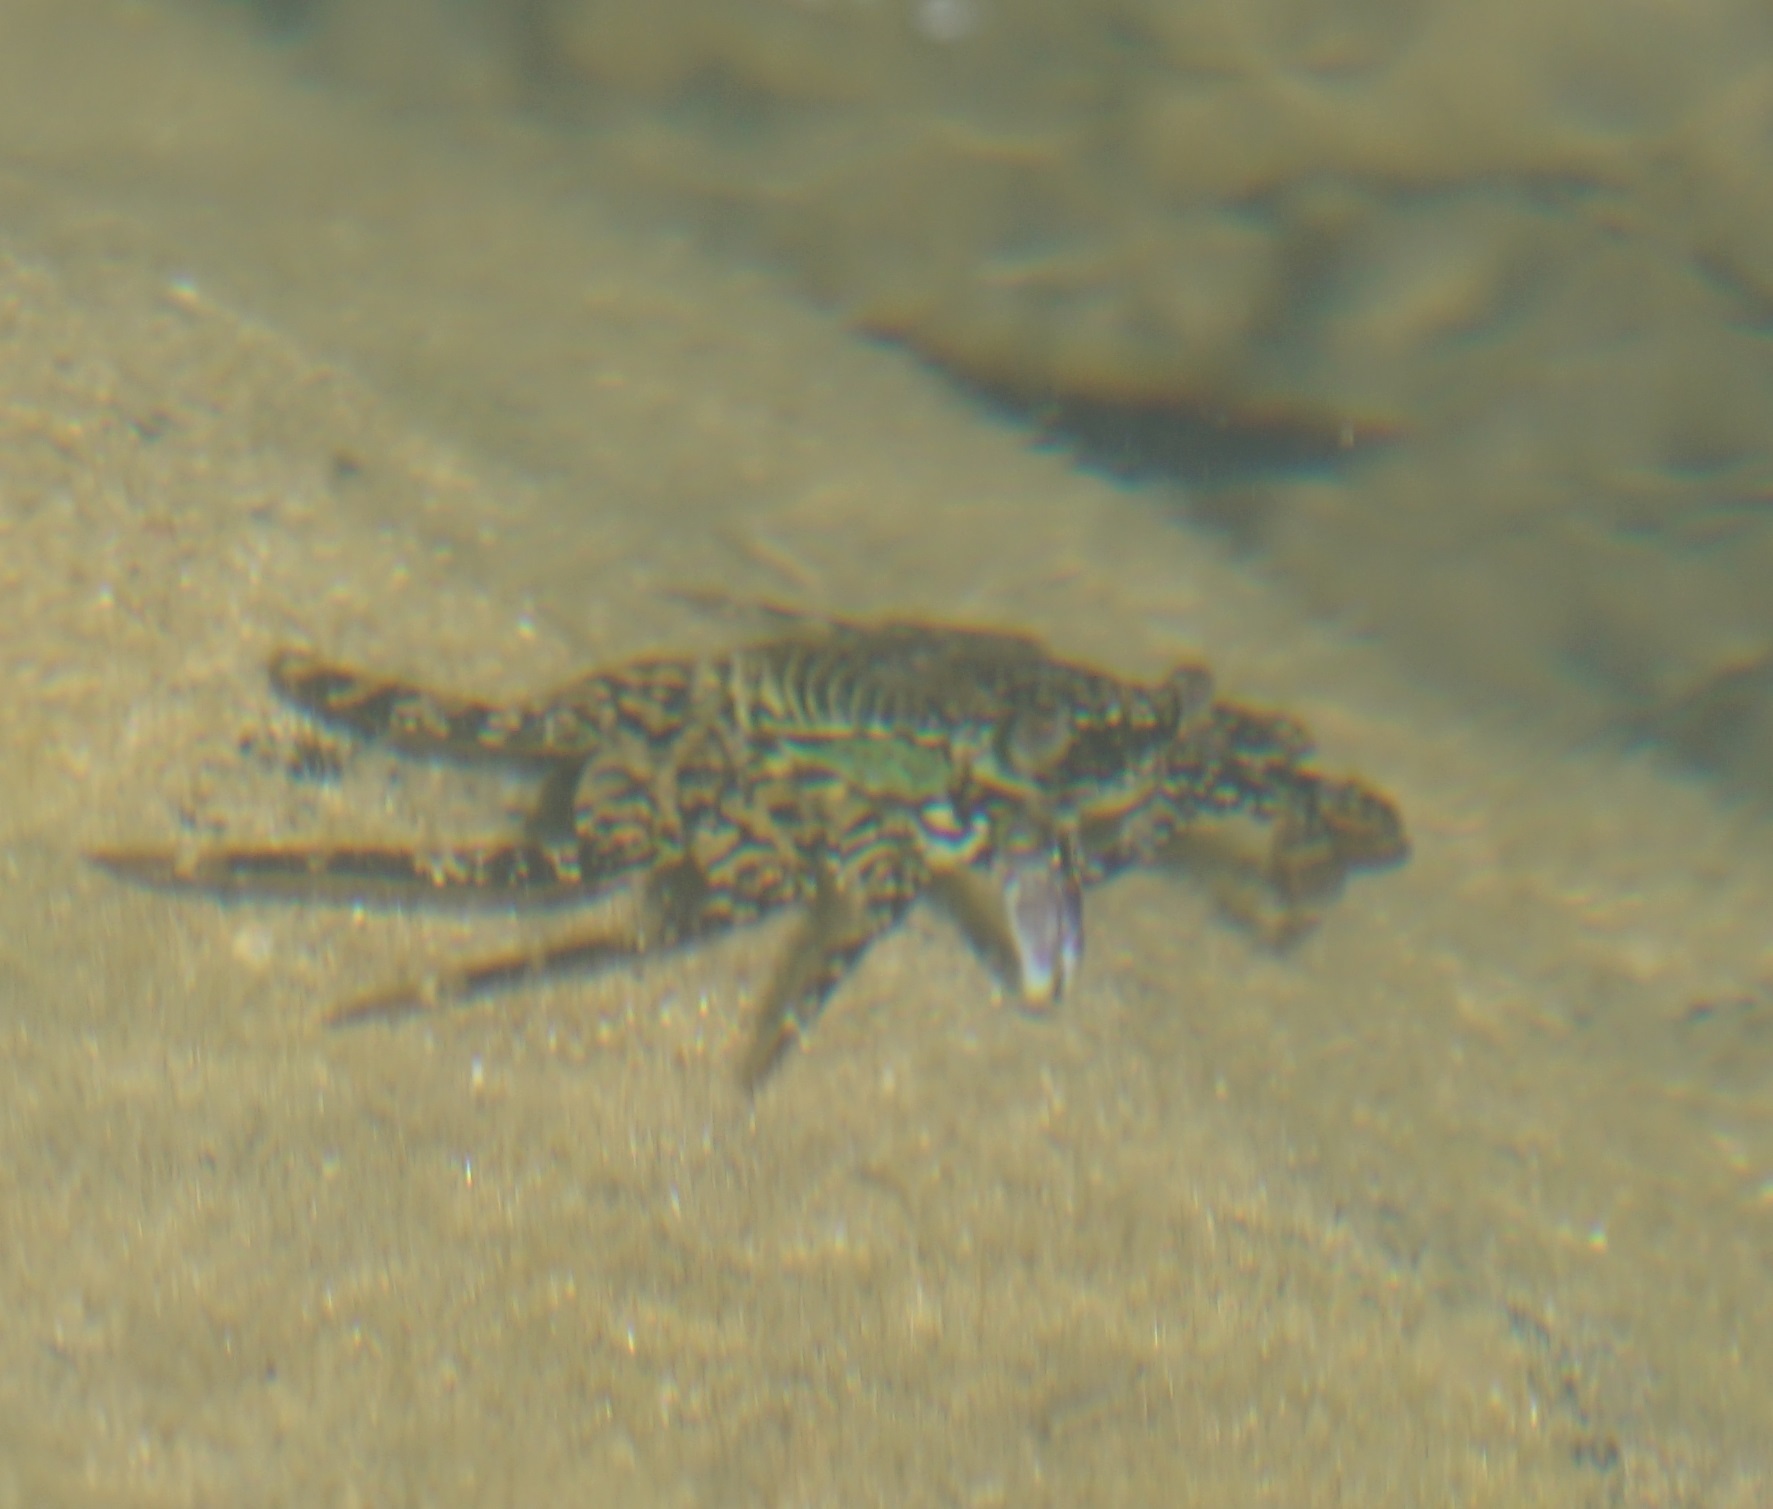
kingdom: Animalia
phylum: Arthropoda
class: Malacostraca
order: Decapoda
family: Grapsidae
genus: Grapsus
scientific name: Grapsus albolineatus
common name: Mottled lightfoot crab
